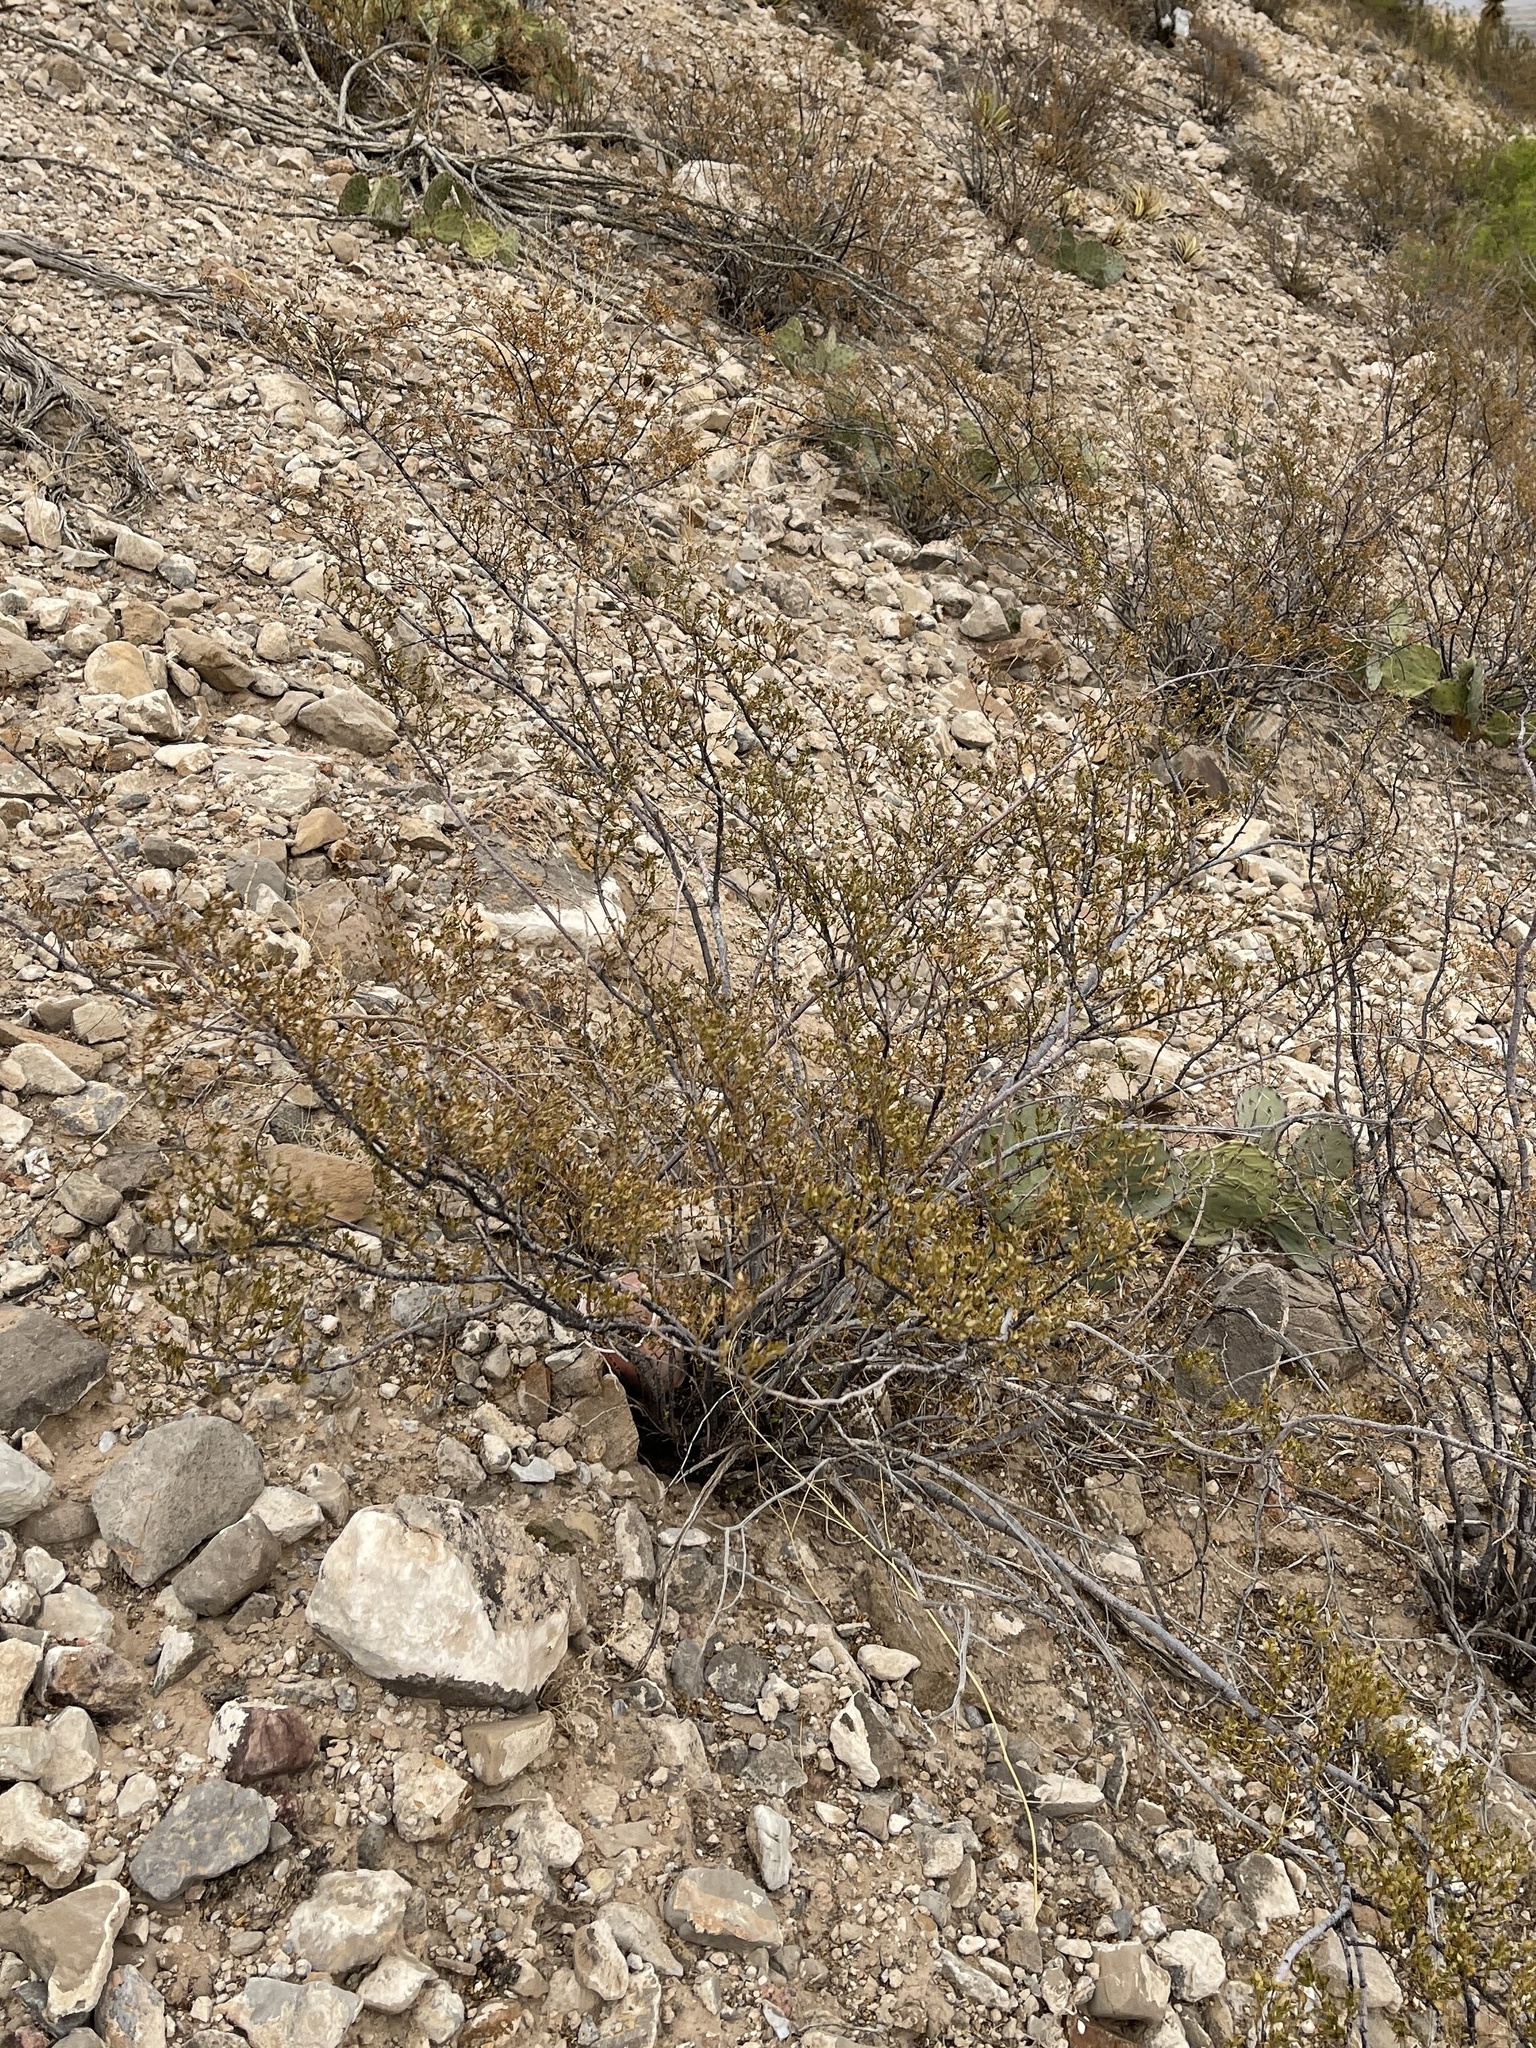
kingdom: Plantae
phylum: Tracheophyta
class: Magnoliopsida
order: Zygophyllales
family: Zygophyllaceae
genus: Larrea
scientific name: Larrea tridentata
